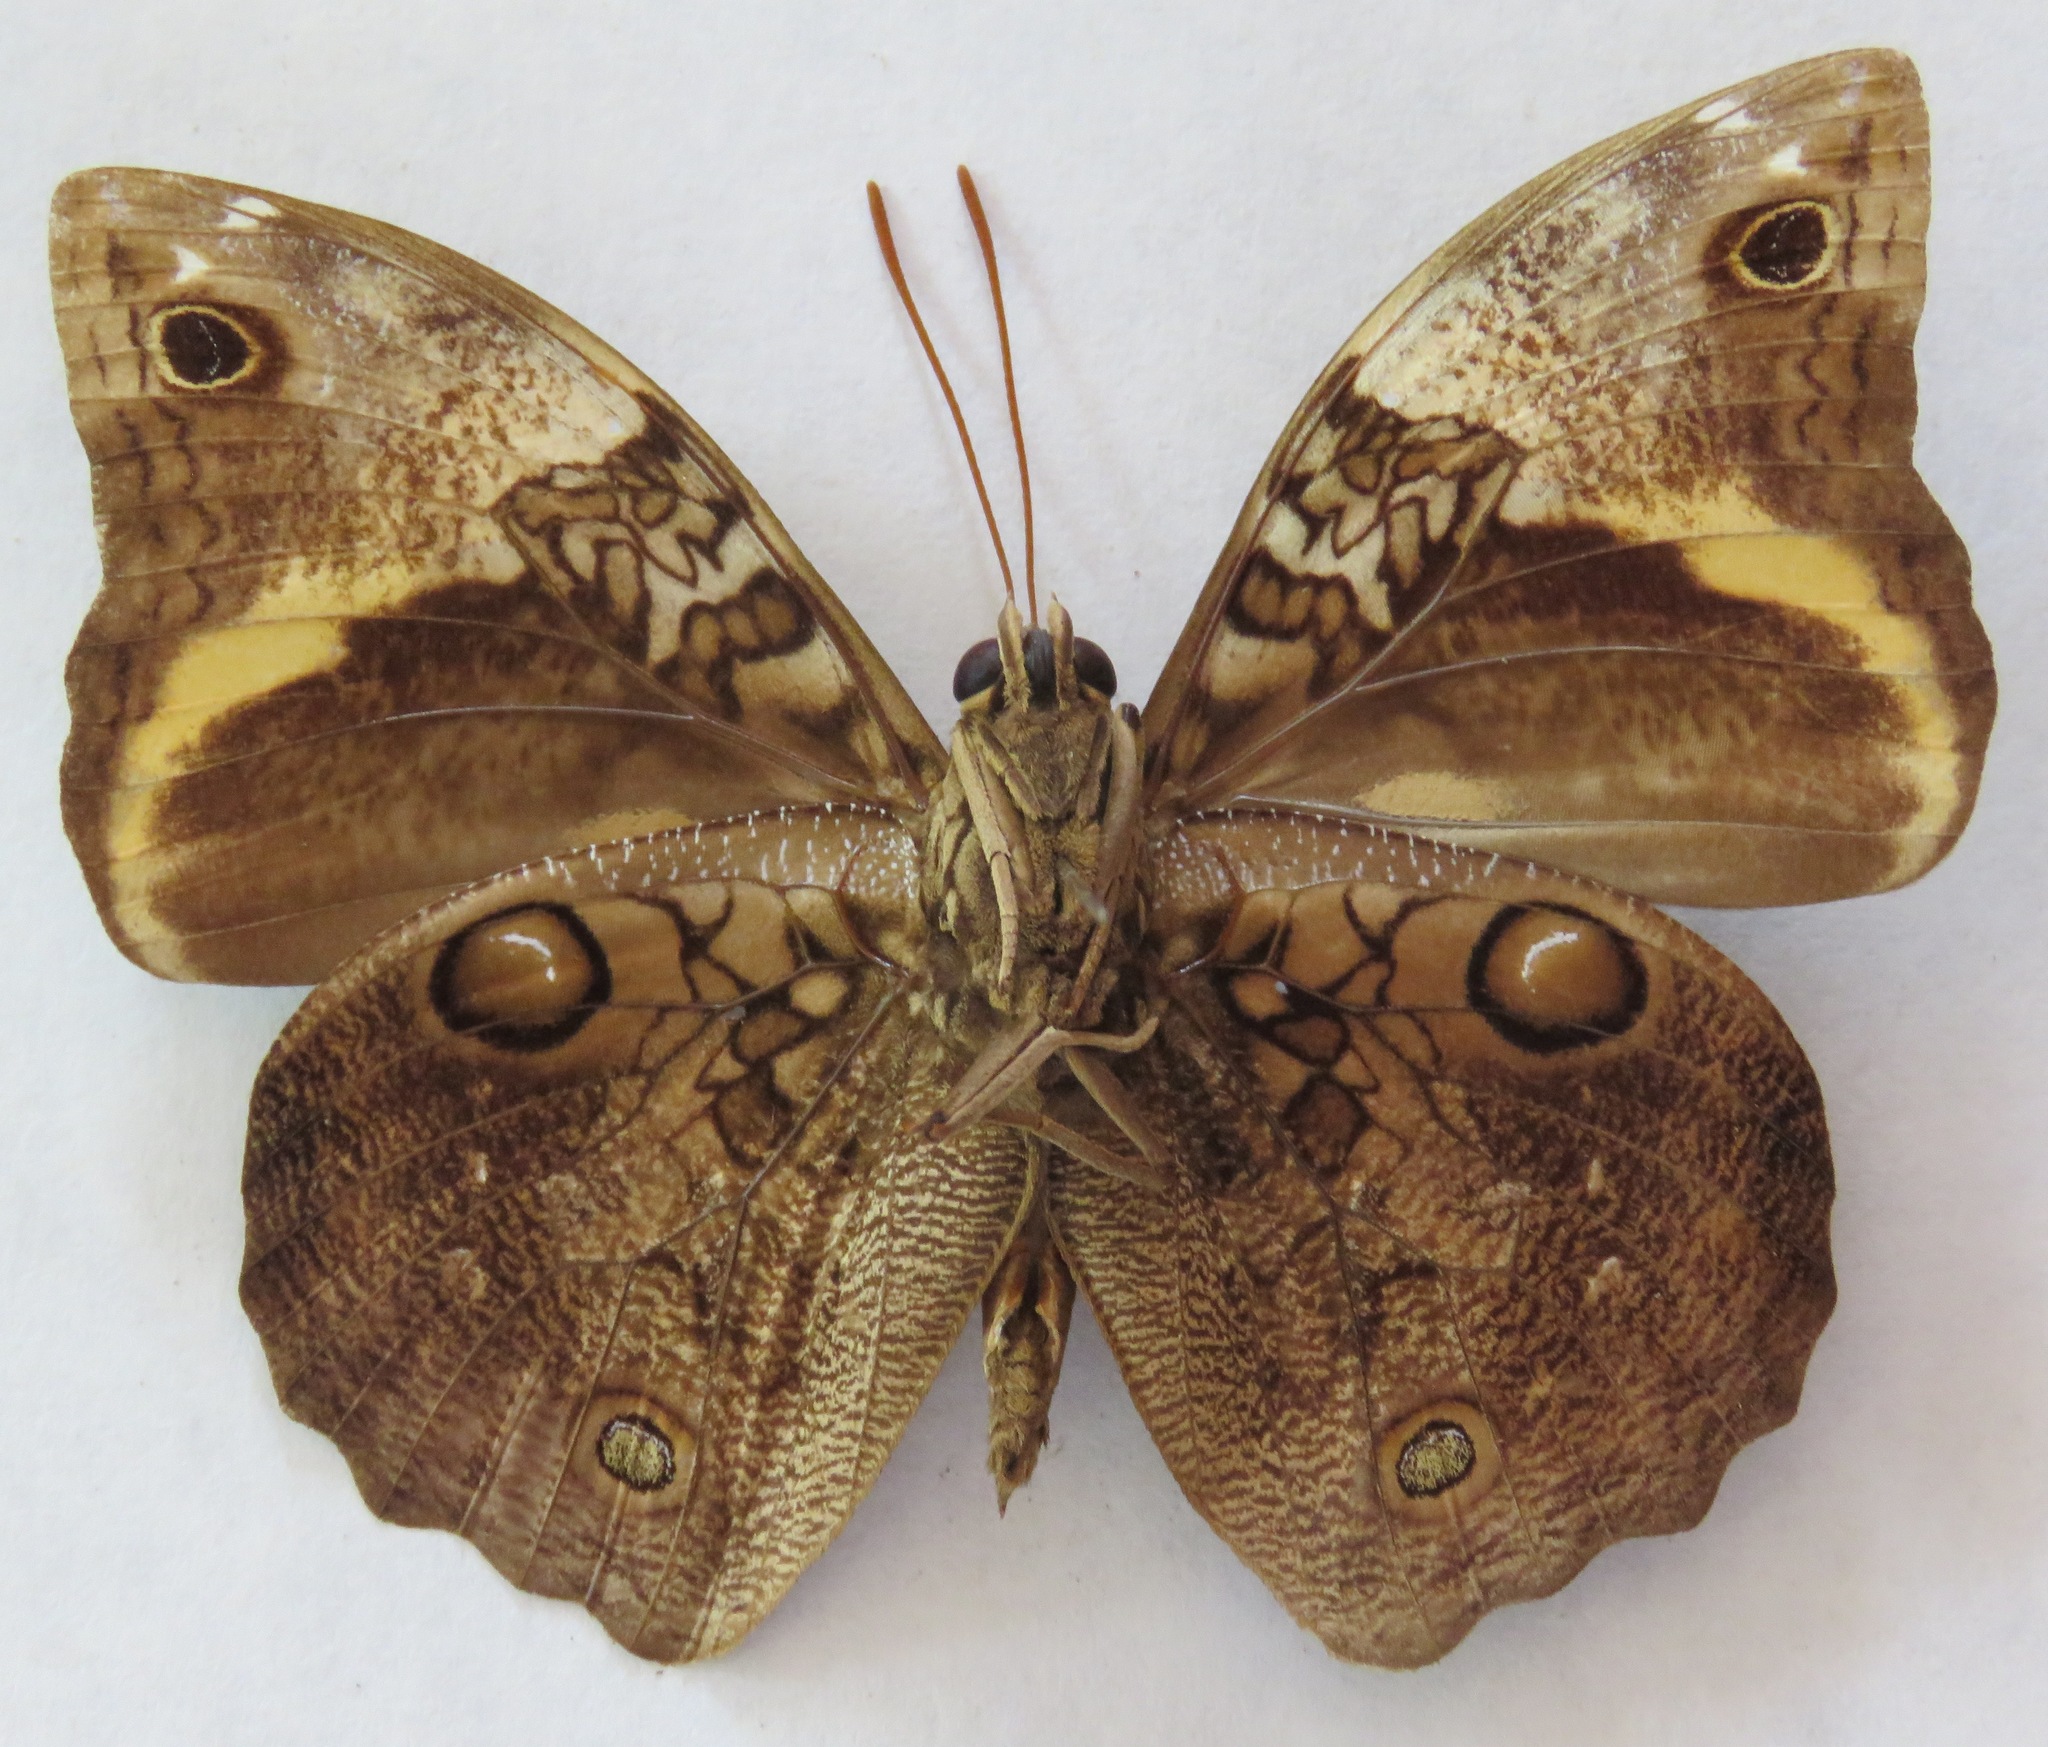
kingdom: Animalia
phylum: Arthropoda
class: Insecta
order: Lepidoptera
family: Nymphalidae
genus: Opsiphanes
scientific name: Opsiphanes invirae
